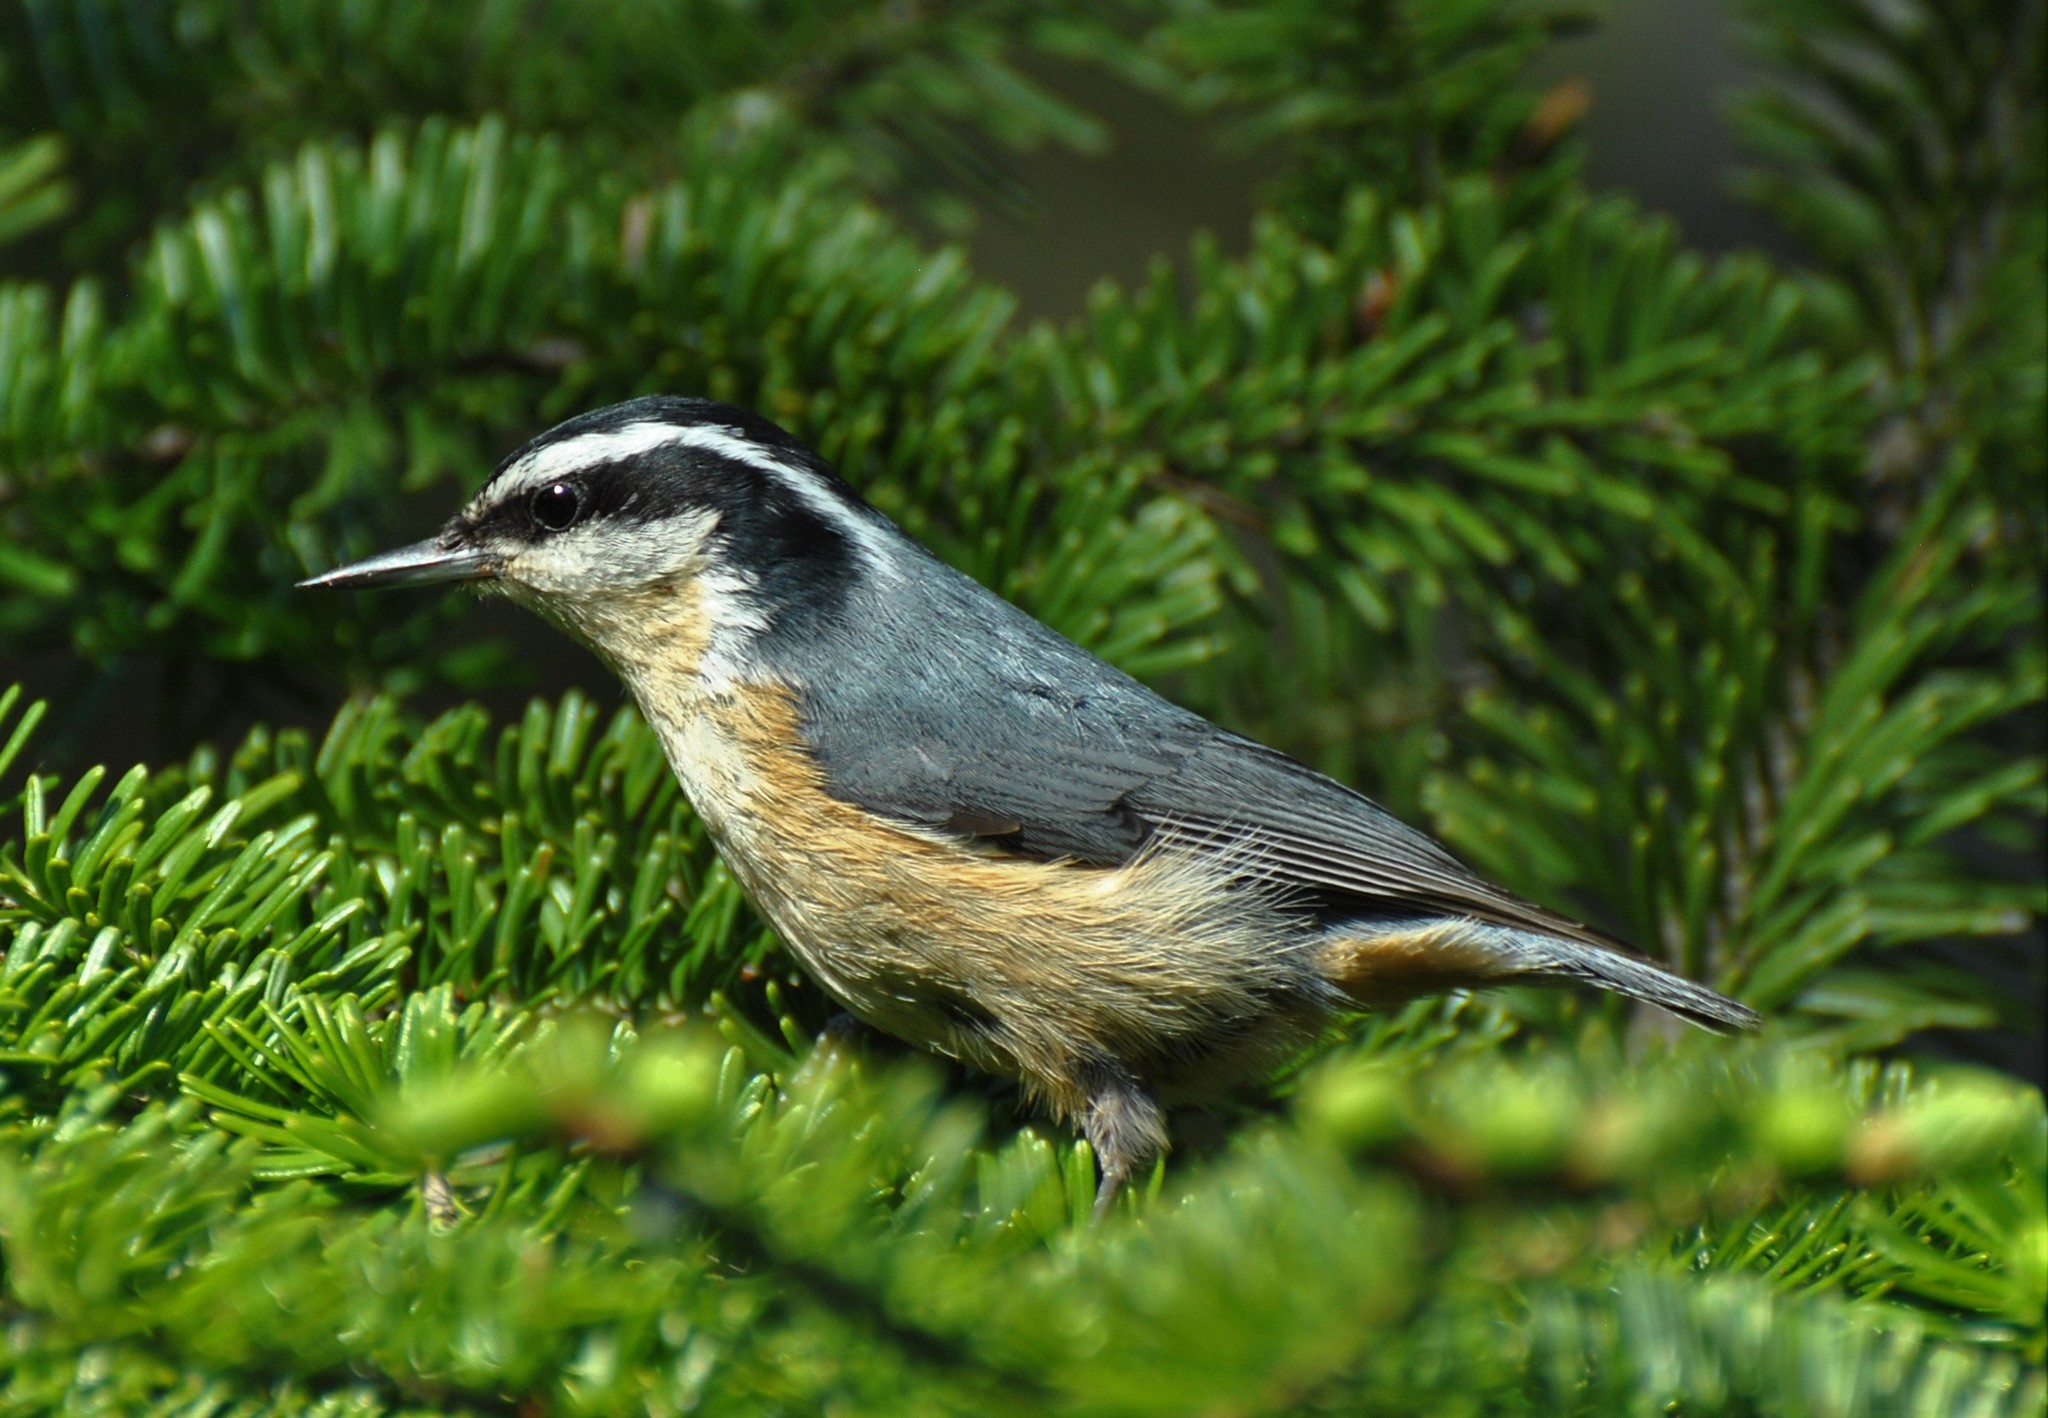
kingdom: Animalia
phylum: Chordata
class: Aves
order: Passeriformes
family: Sittidae
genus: Sitta
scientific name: Sitta canadensis
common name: Red-breasted nuthatch
